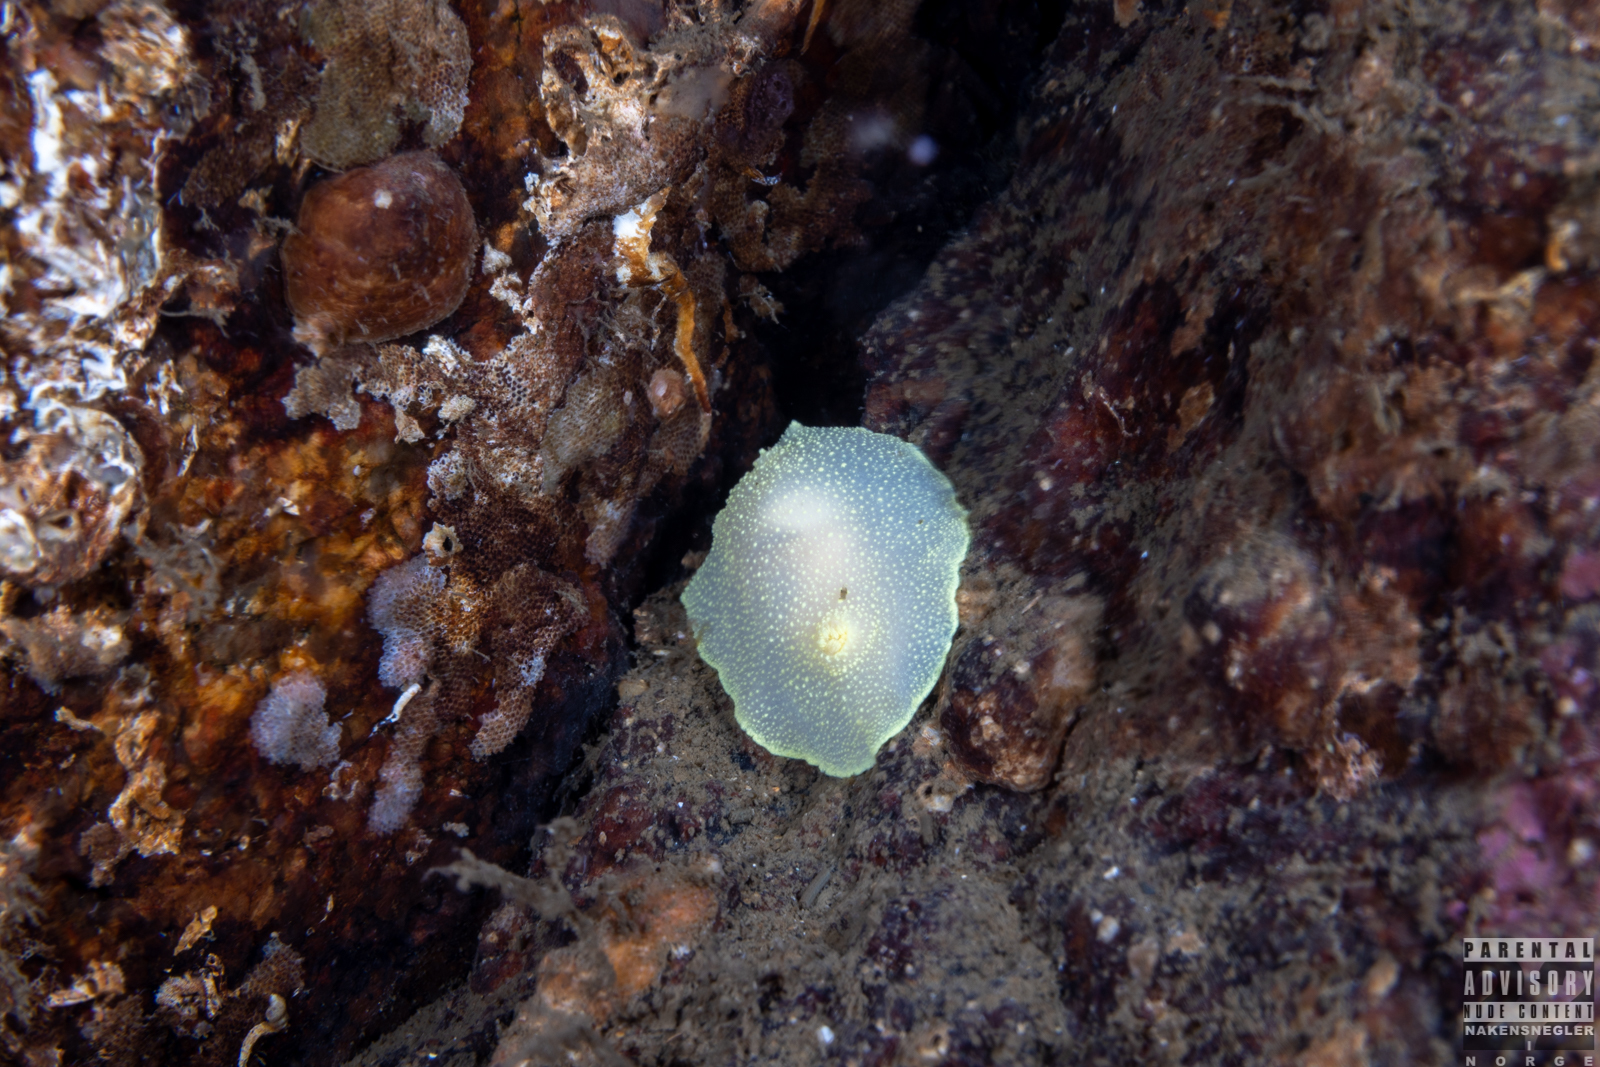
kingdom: Animalia
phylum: Mollusca
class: Gastropoda
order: Nudibranchia
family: Cadlinidae
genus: Cadlina
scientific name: Cadlina laevis
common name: White atlantic cadlina
